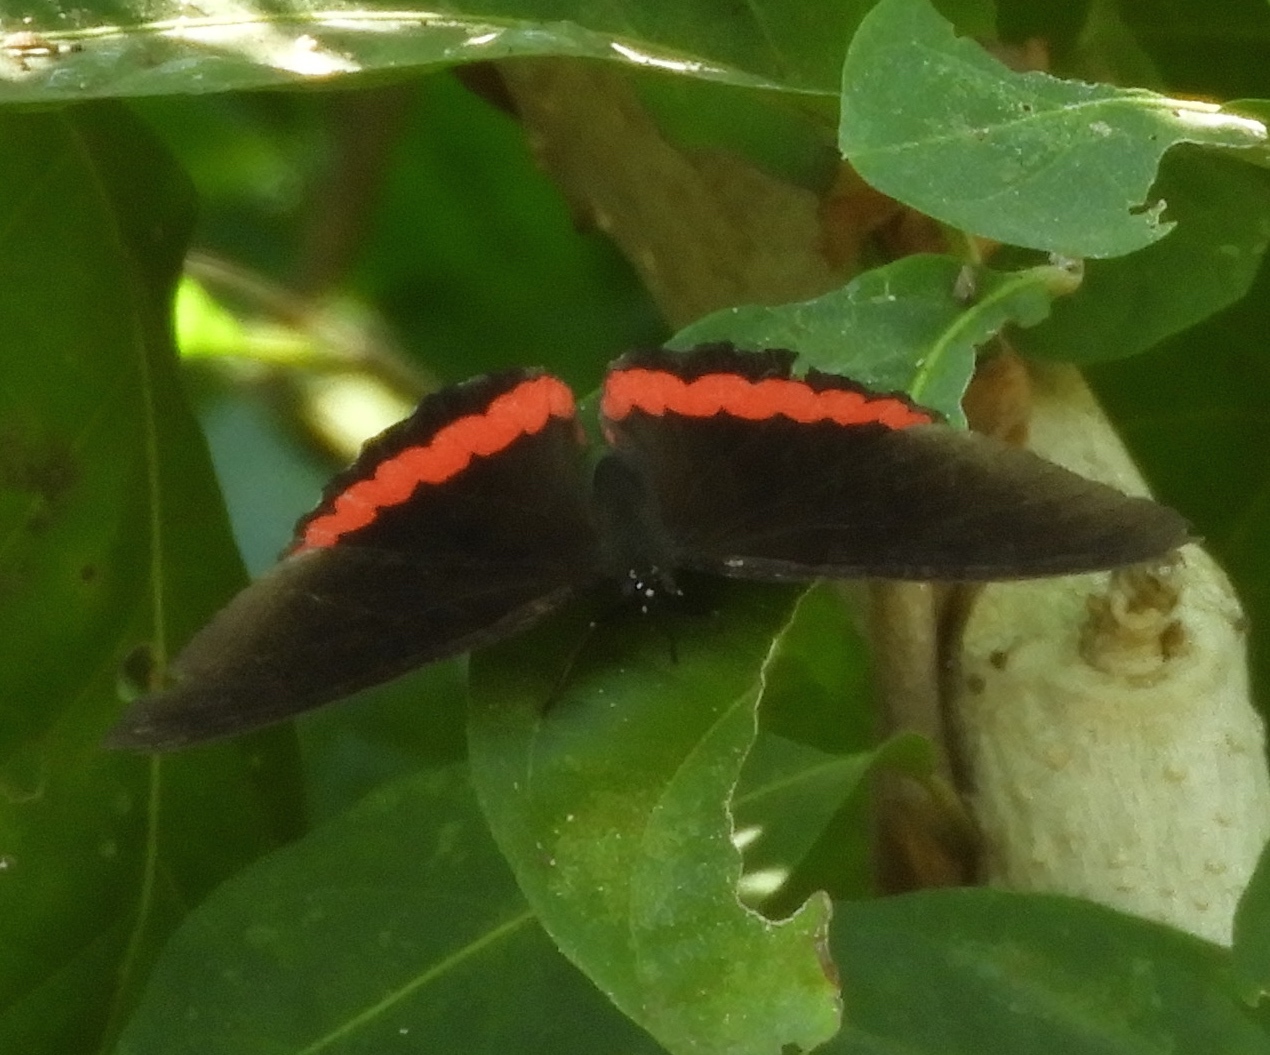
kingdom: Animalia
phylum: Arthropoda
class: Insecta
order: Lepidoptera
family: Nymphalidae
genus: Biblis
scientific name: Biblis aganisa
